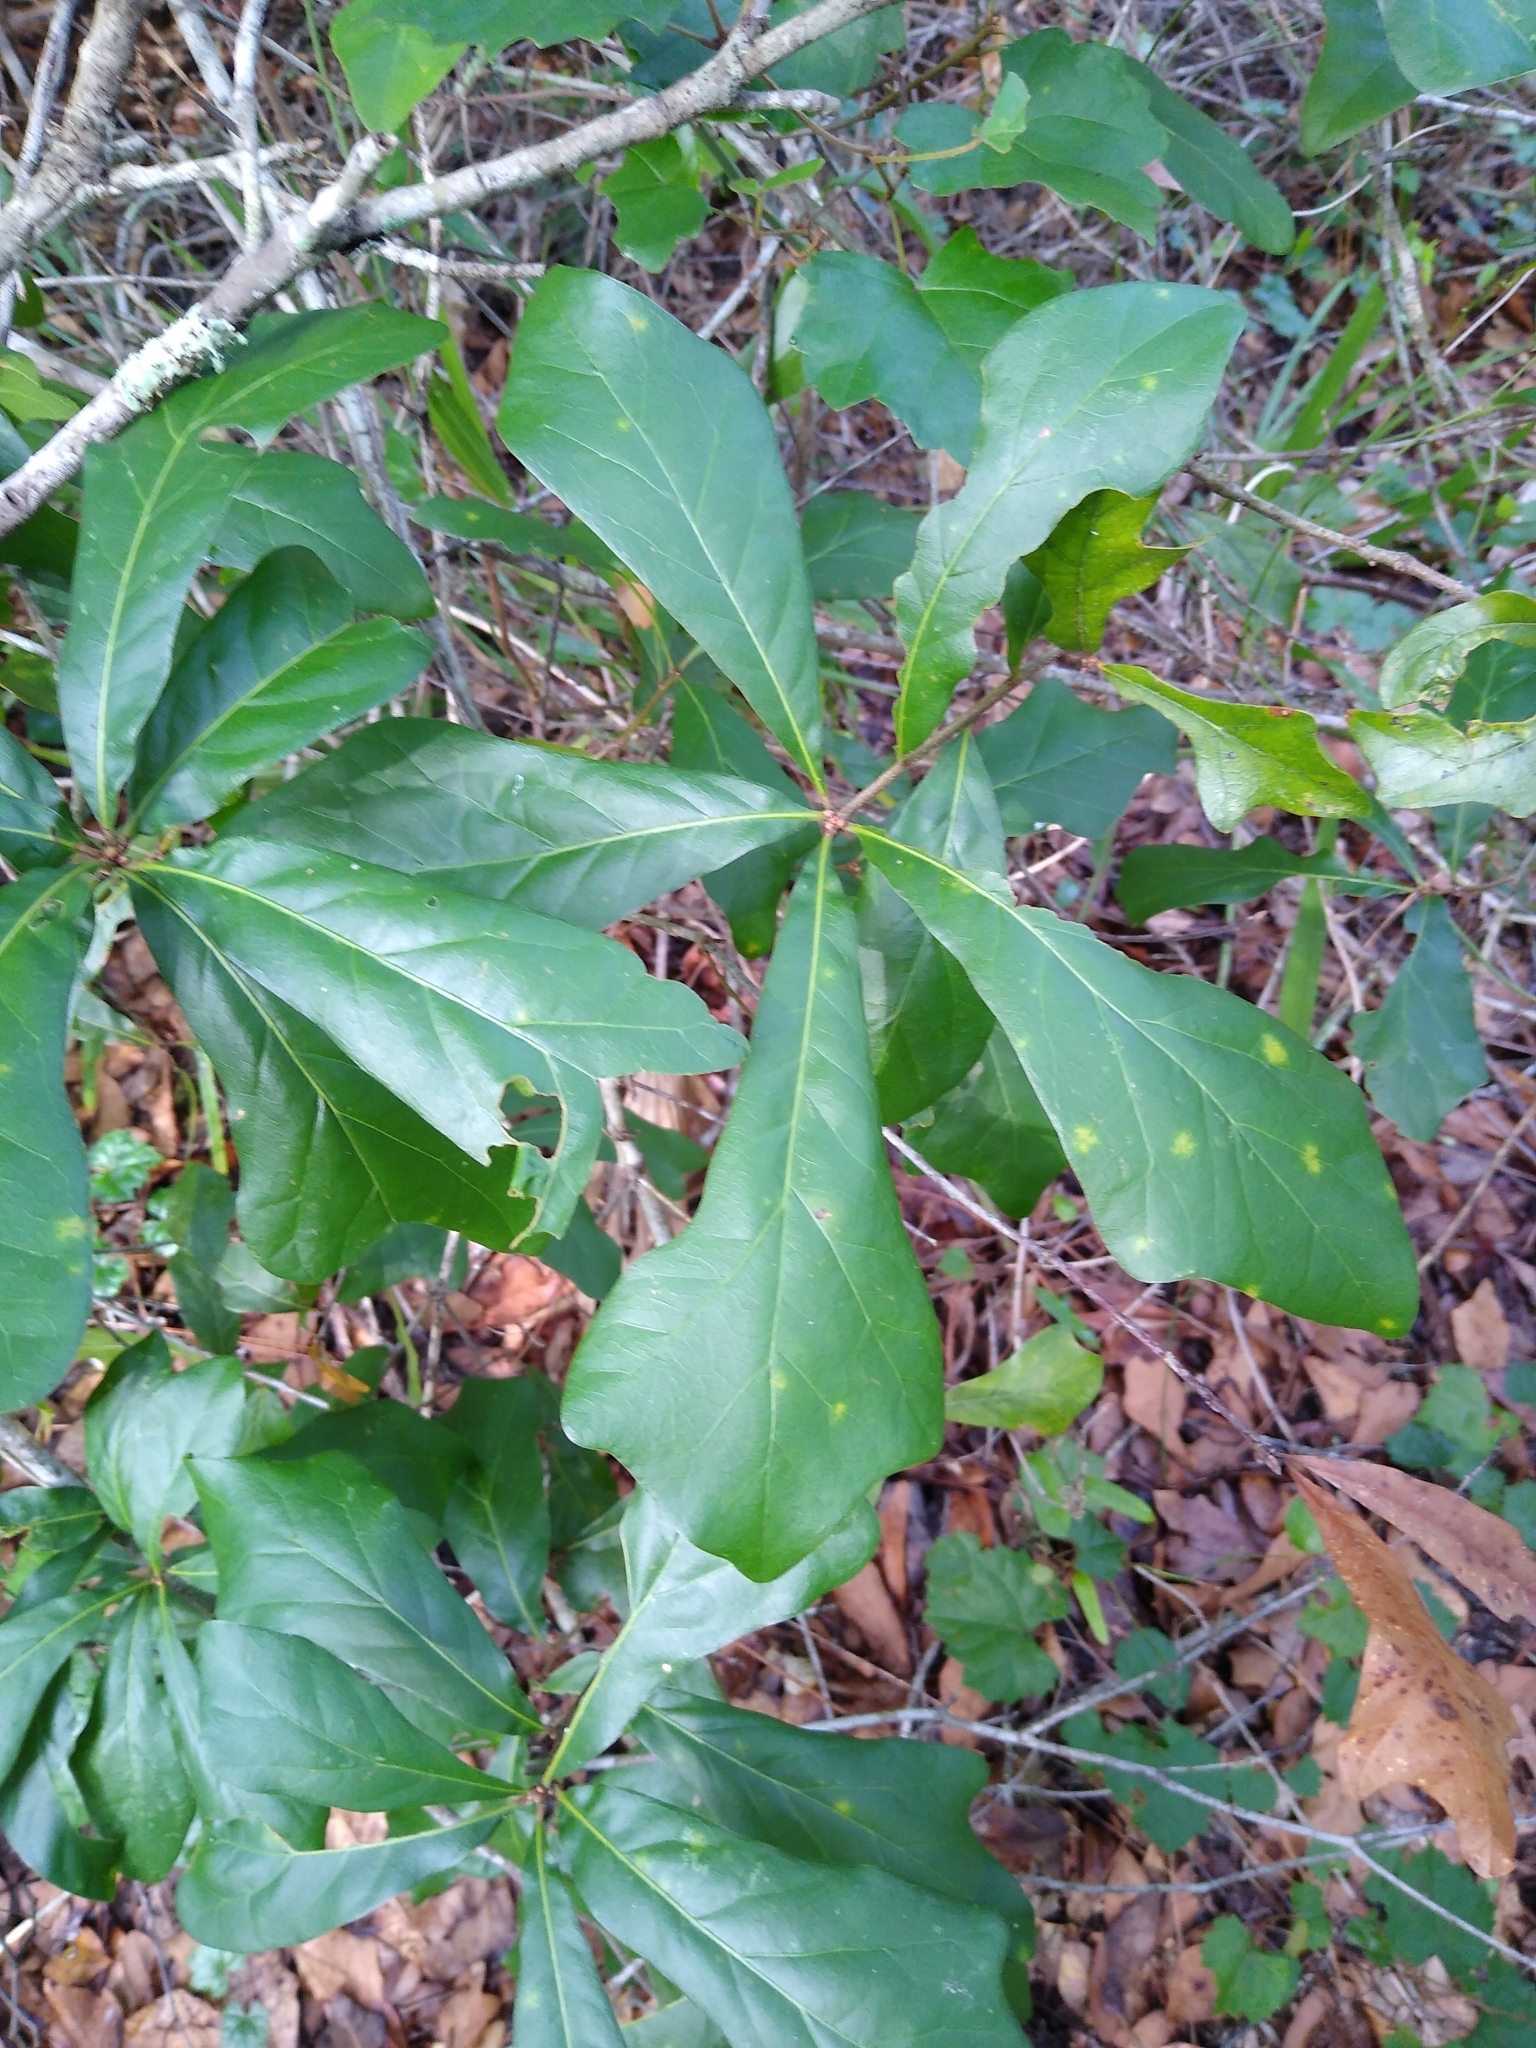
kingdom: Plantae
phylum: Tracheophyta
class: Magnoliopsida
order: Fagales
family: Fagaceae
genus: Quercus
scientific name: Quercus nigra
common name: Water oak
